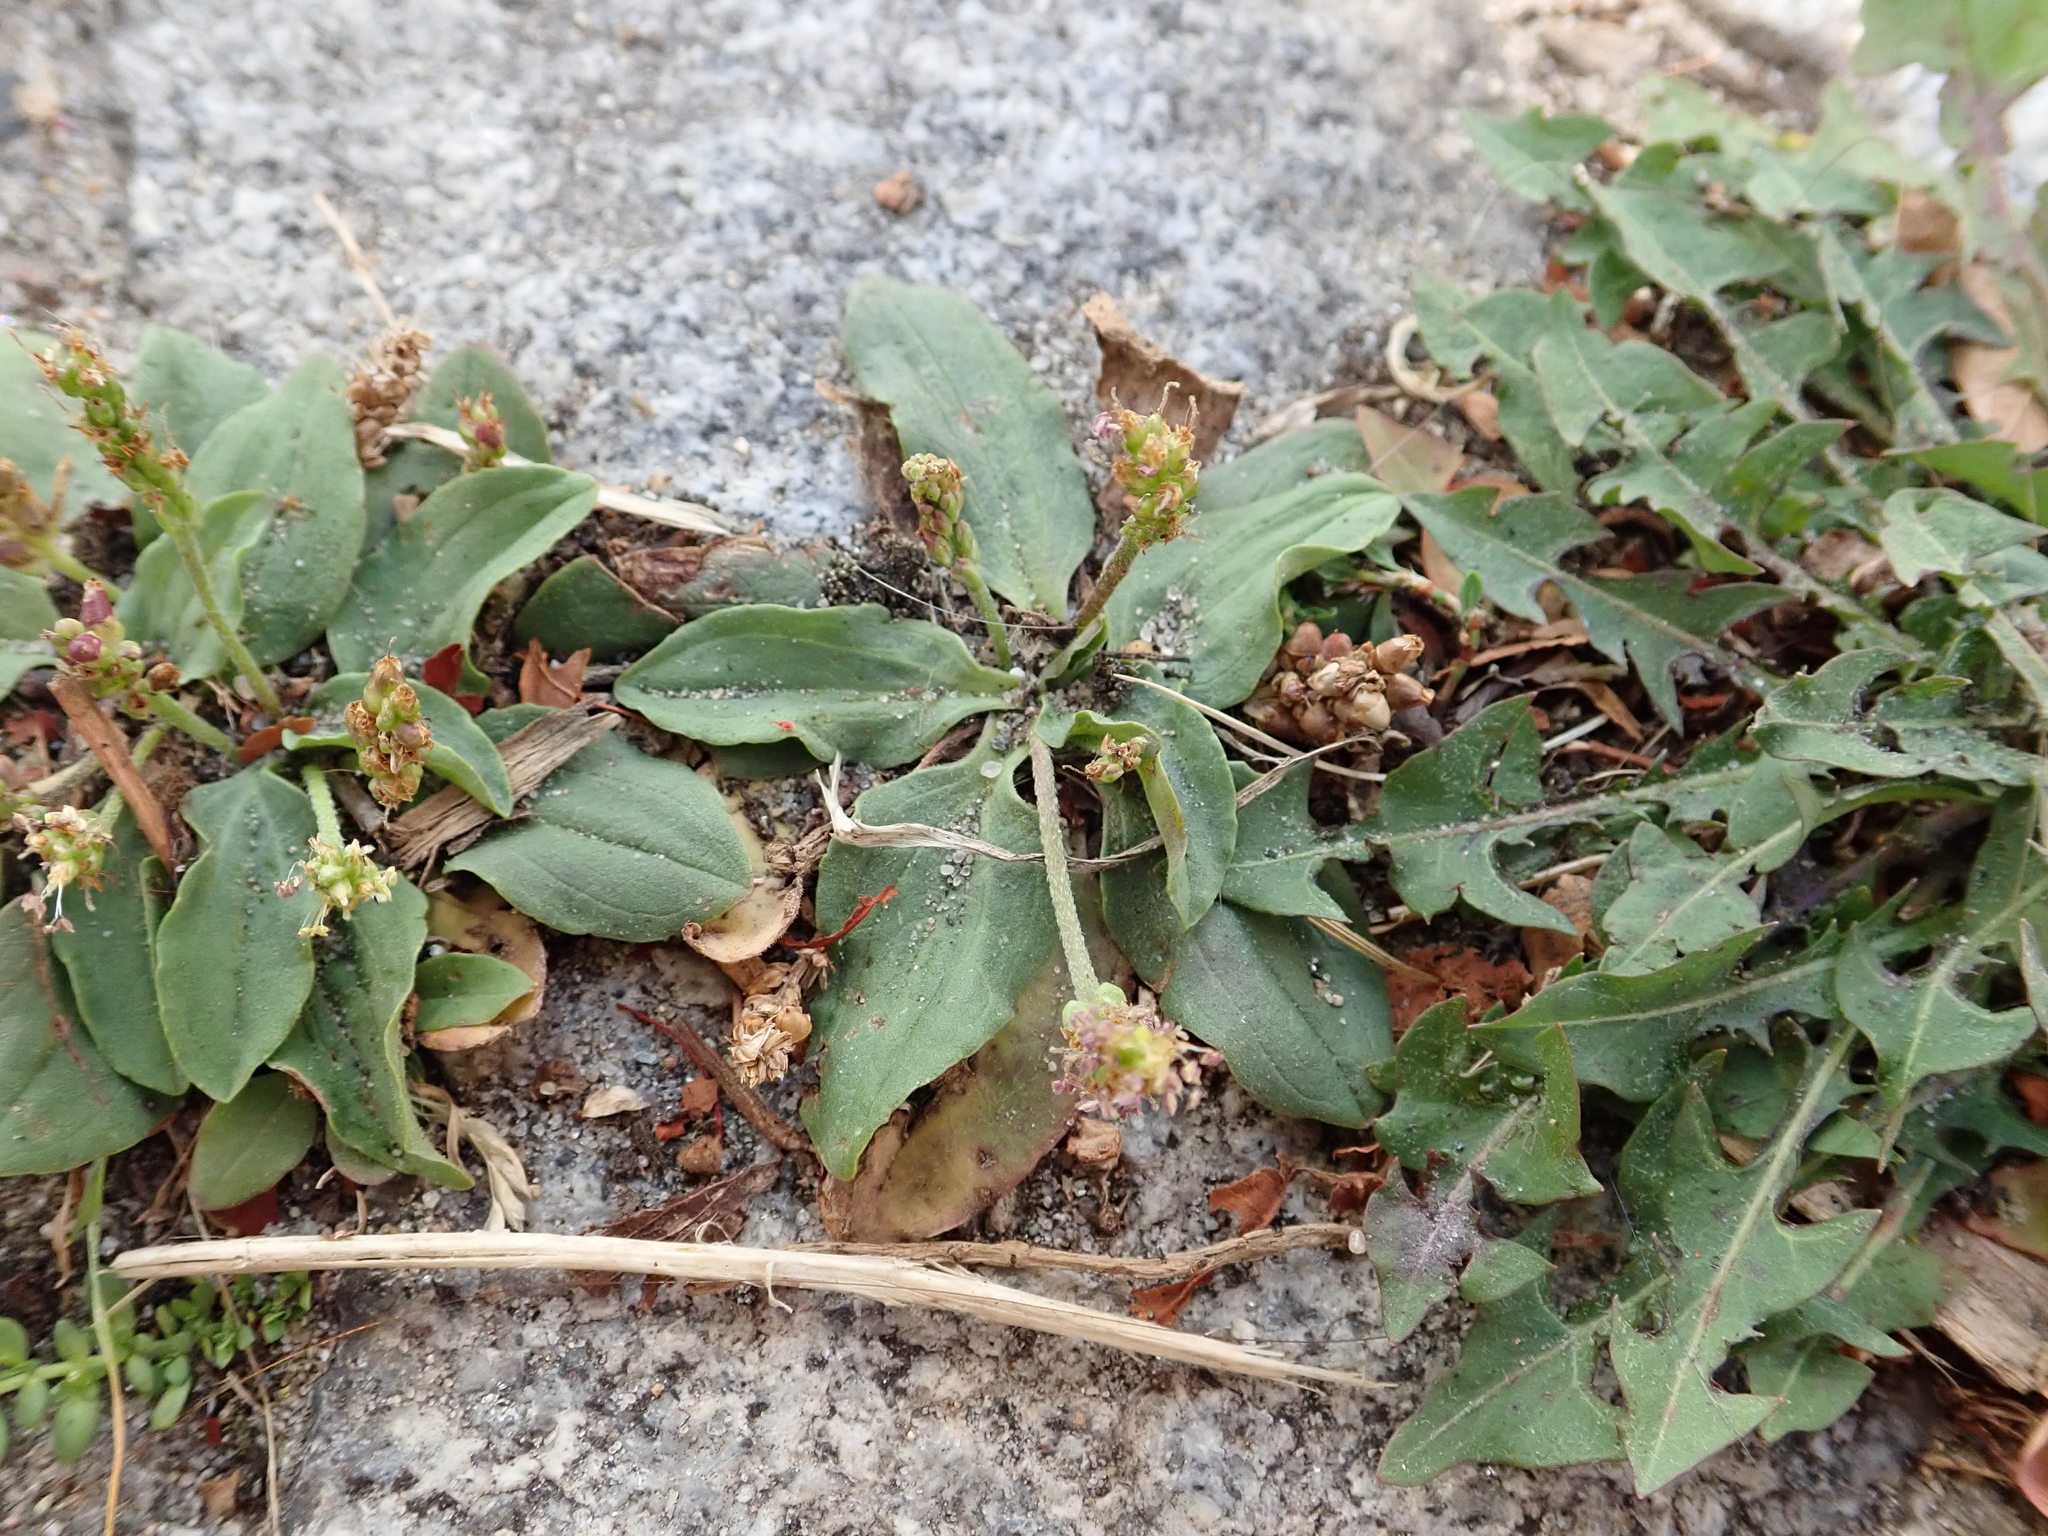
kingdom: Plantae
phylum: Tracheophyta
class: Magnoliopsida
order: Lamiales
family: Plantaginaceae
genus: Plantago
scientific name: Plantago major
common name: Common plantain
